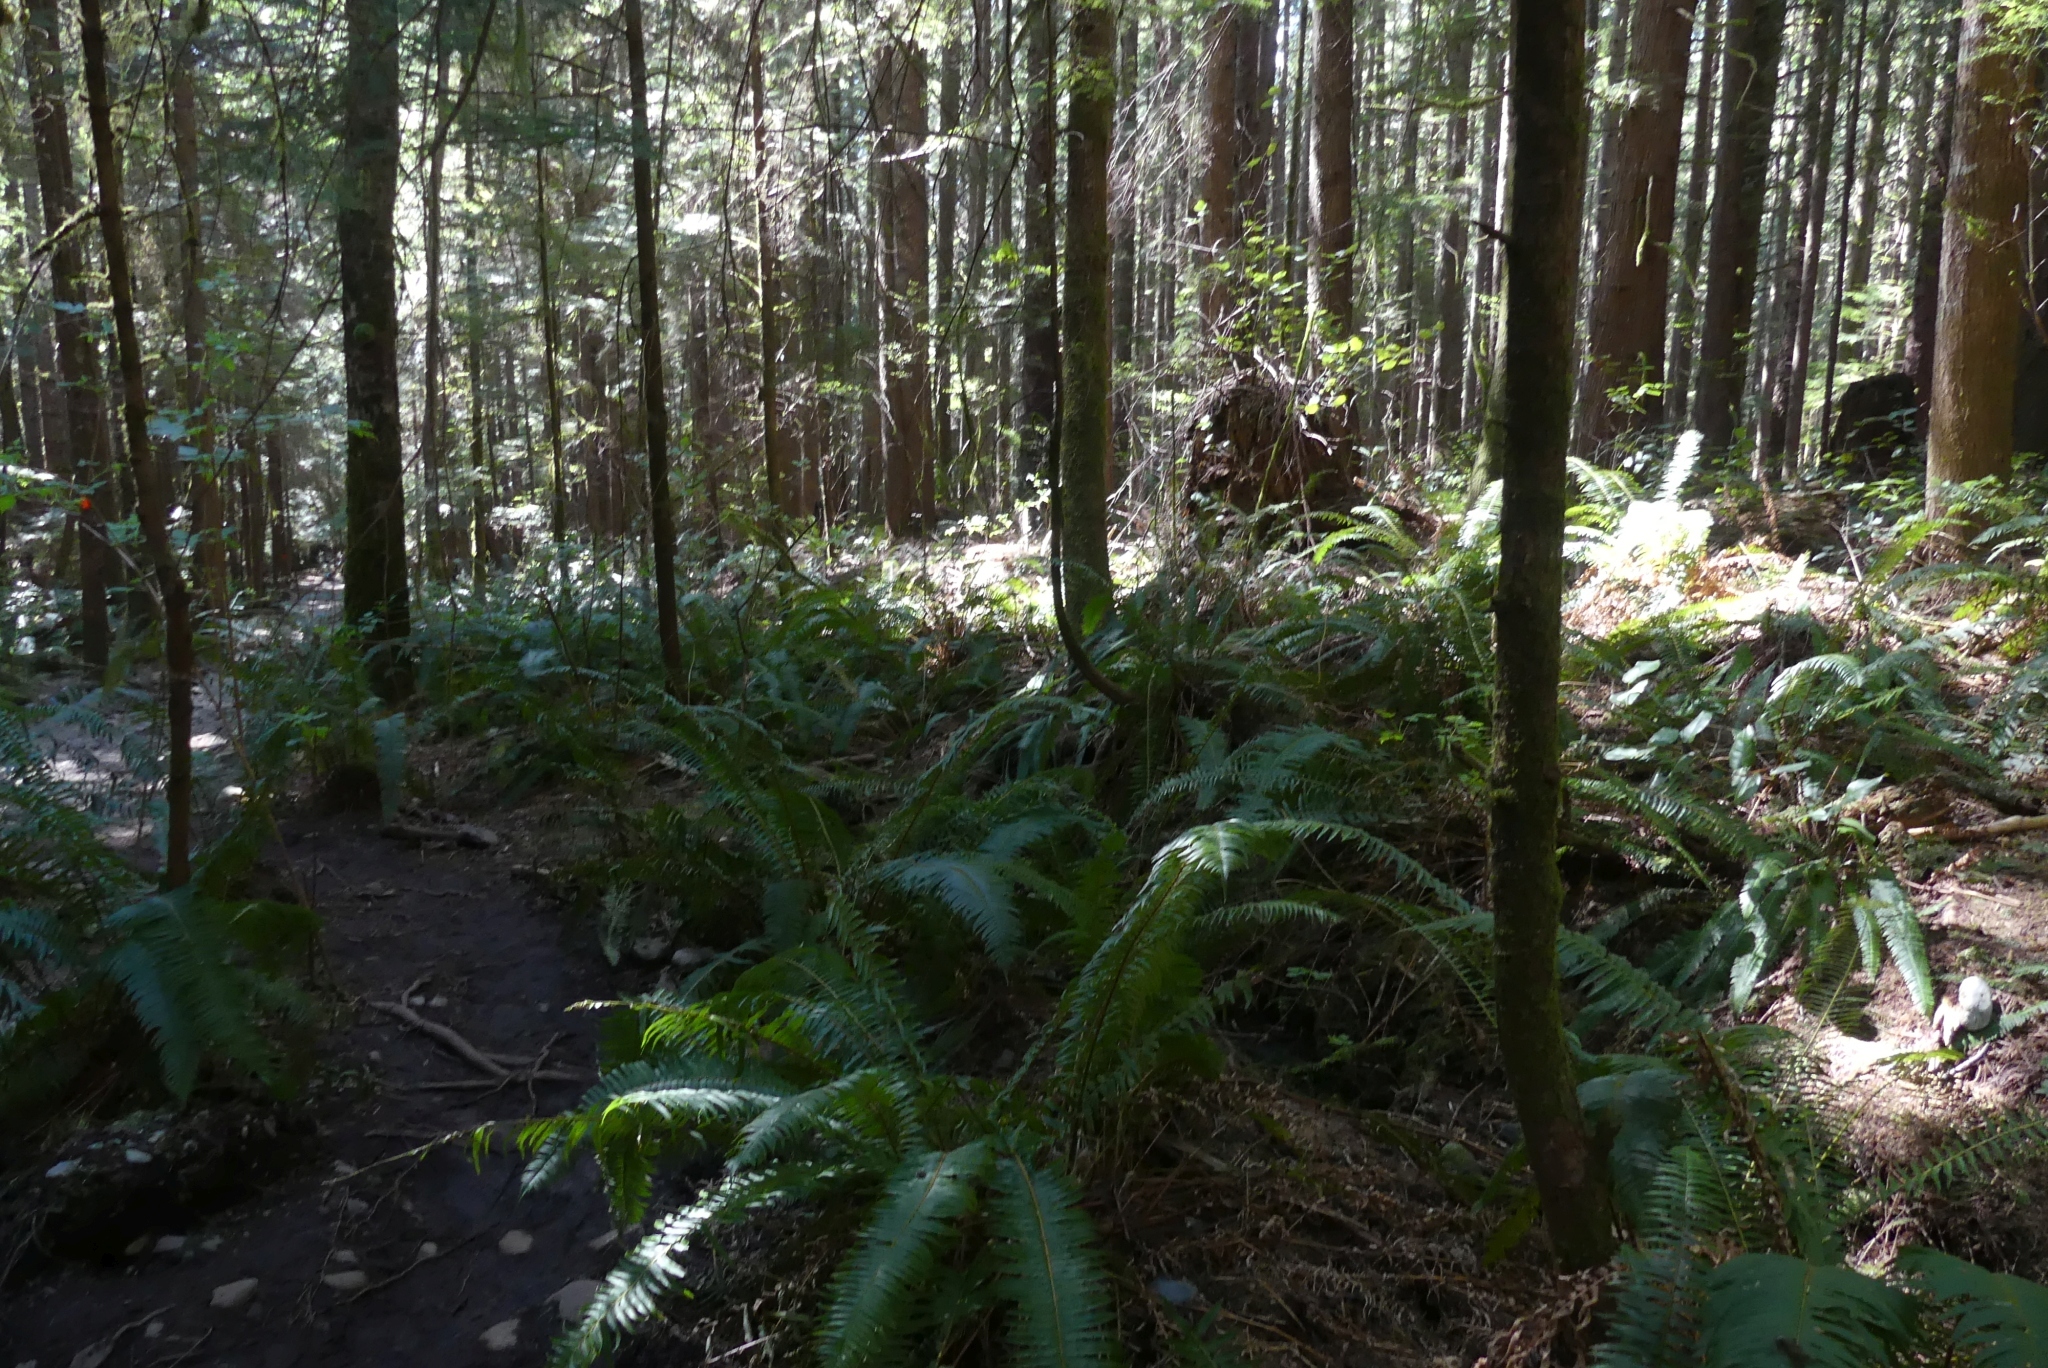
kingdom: Plantae
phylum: Tracheophyta
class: Polypodiopsida
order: Polypodiales
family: Dryopteridaceae
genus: Polystichum
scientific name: Polystichum munitum
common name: Western sword-fern
